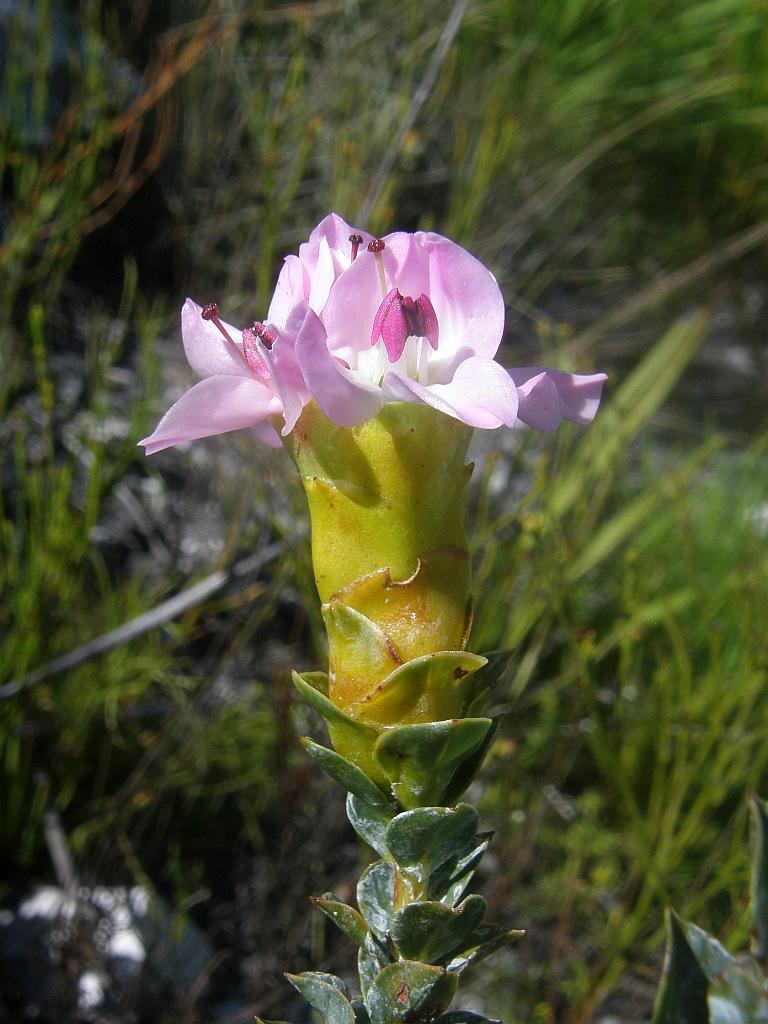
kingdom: Plantae
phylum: Tracheophyta
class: Magnoliopsida
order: Myrtales
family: Penaeaceae
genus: Saltera
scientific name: Saltera sarcocolla
